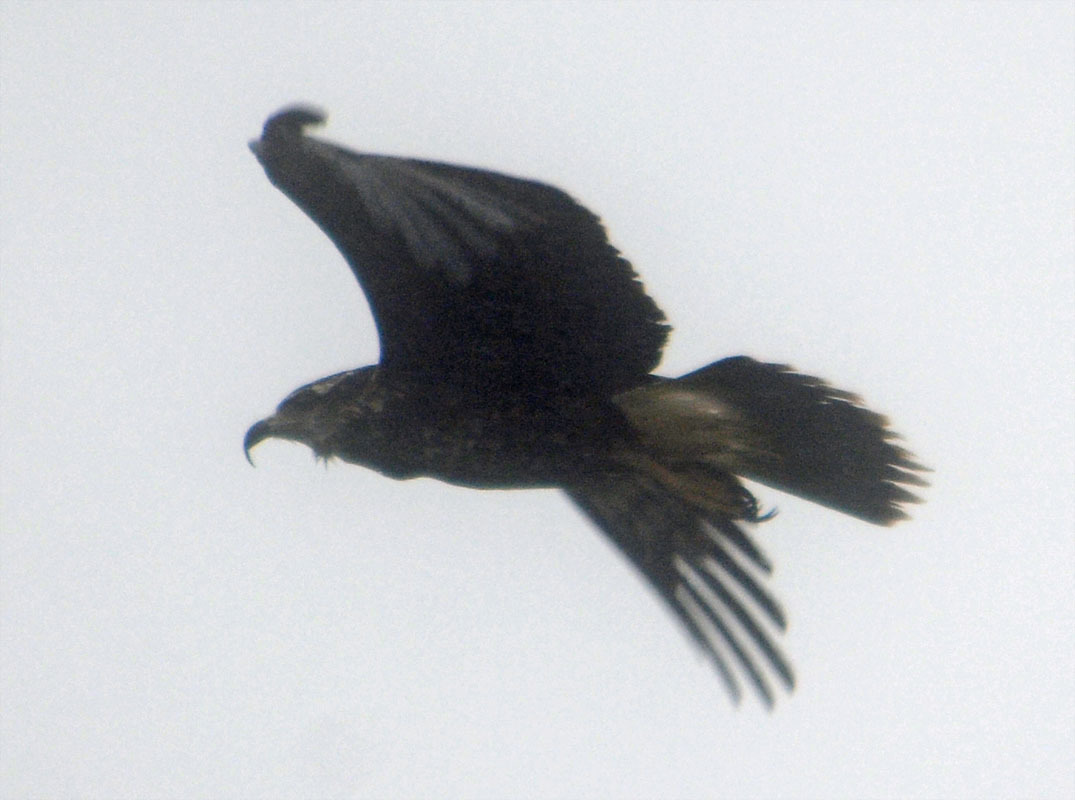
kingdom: Animalia
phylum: Chordata
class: Aves
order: Accipitriformes
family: Accipitridae
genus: Rostrhamus
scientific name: Rostrhamus sociabilis
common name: Snail kite
